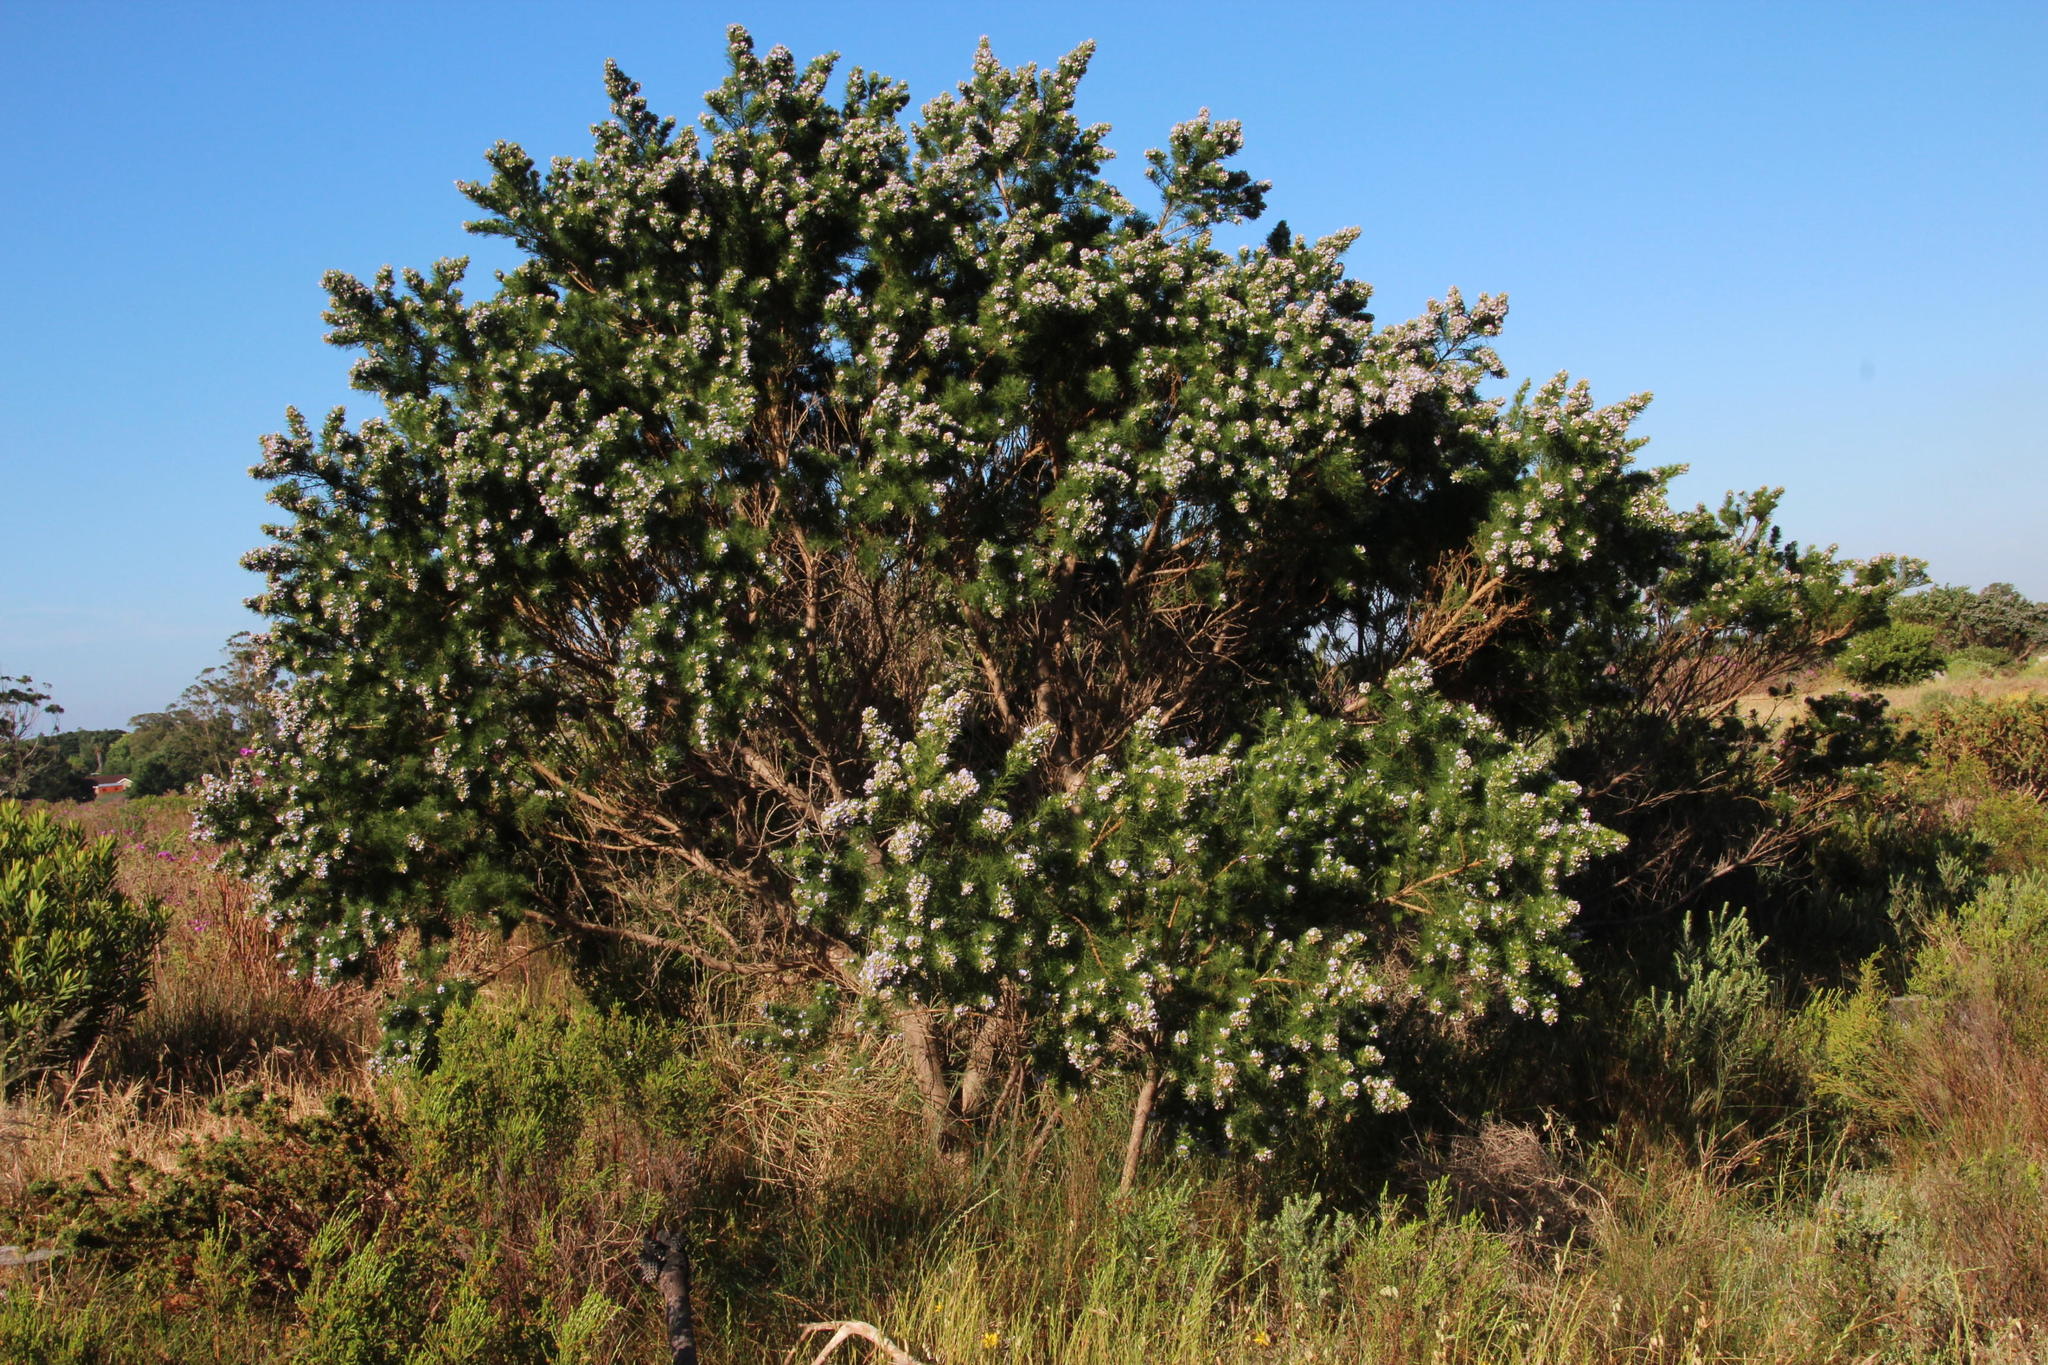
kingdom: Plantae
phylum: Tracheophyta
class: Magnoliopsida
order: Fabales
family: Fabaceae
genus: Psoralea
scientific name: Psoralea pinnata
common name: African scurfpea
